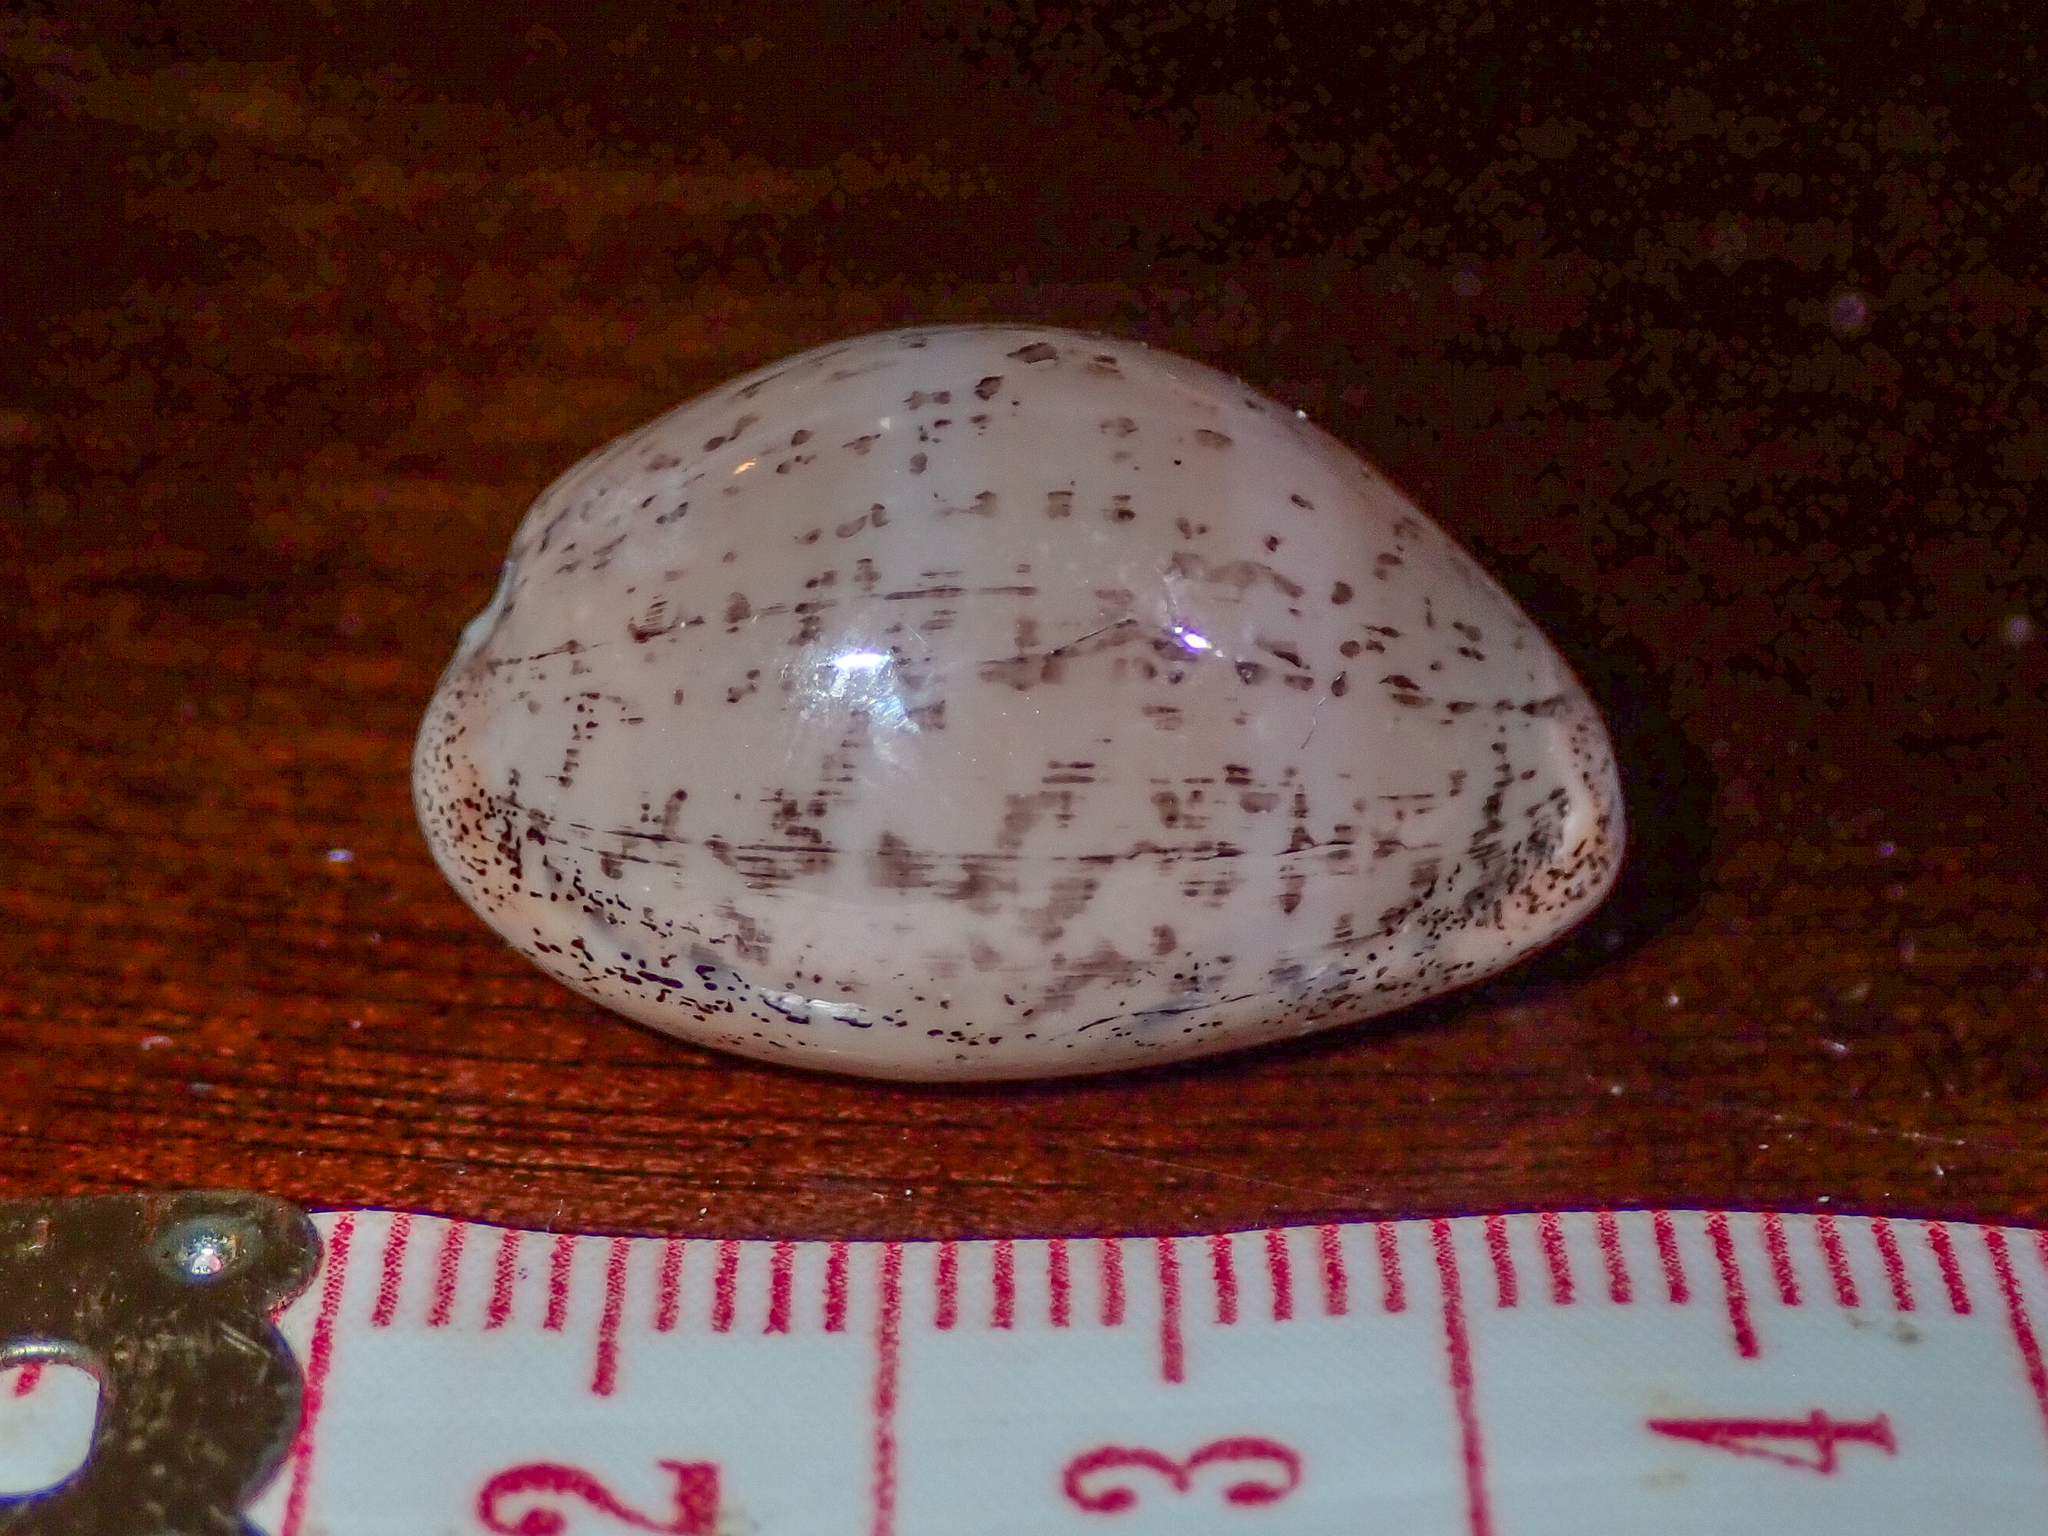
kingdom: Animalia
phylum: Mollusca
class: Gastropoda
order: Littorinimorpha
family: Cypraeidae
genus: Luria
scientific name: Luria cinerea
